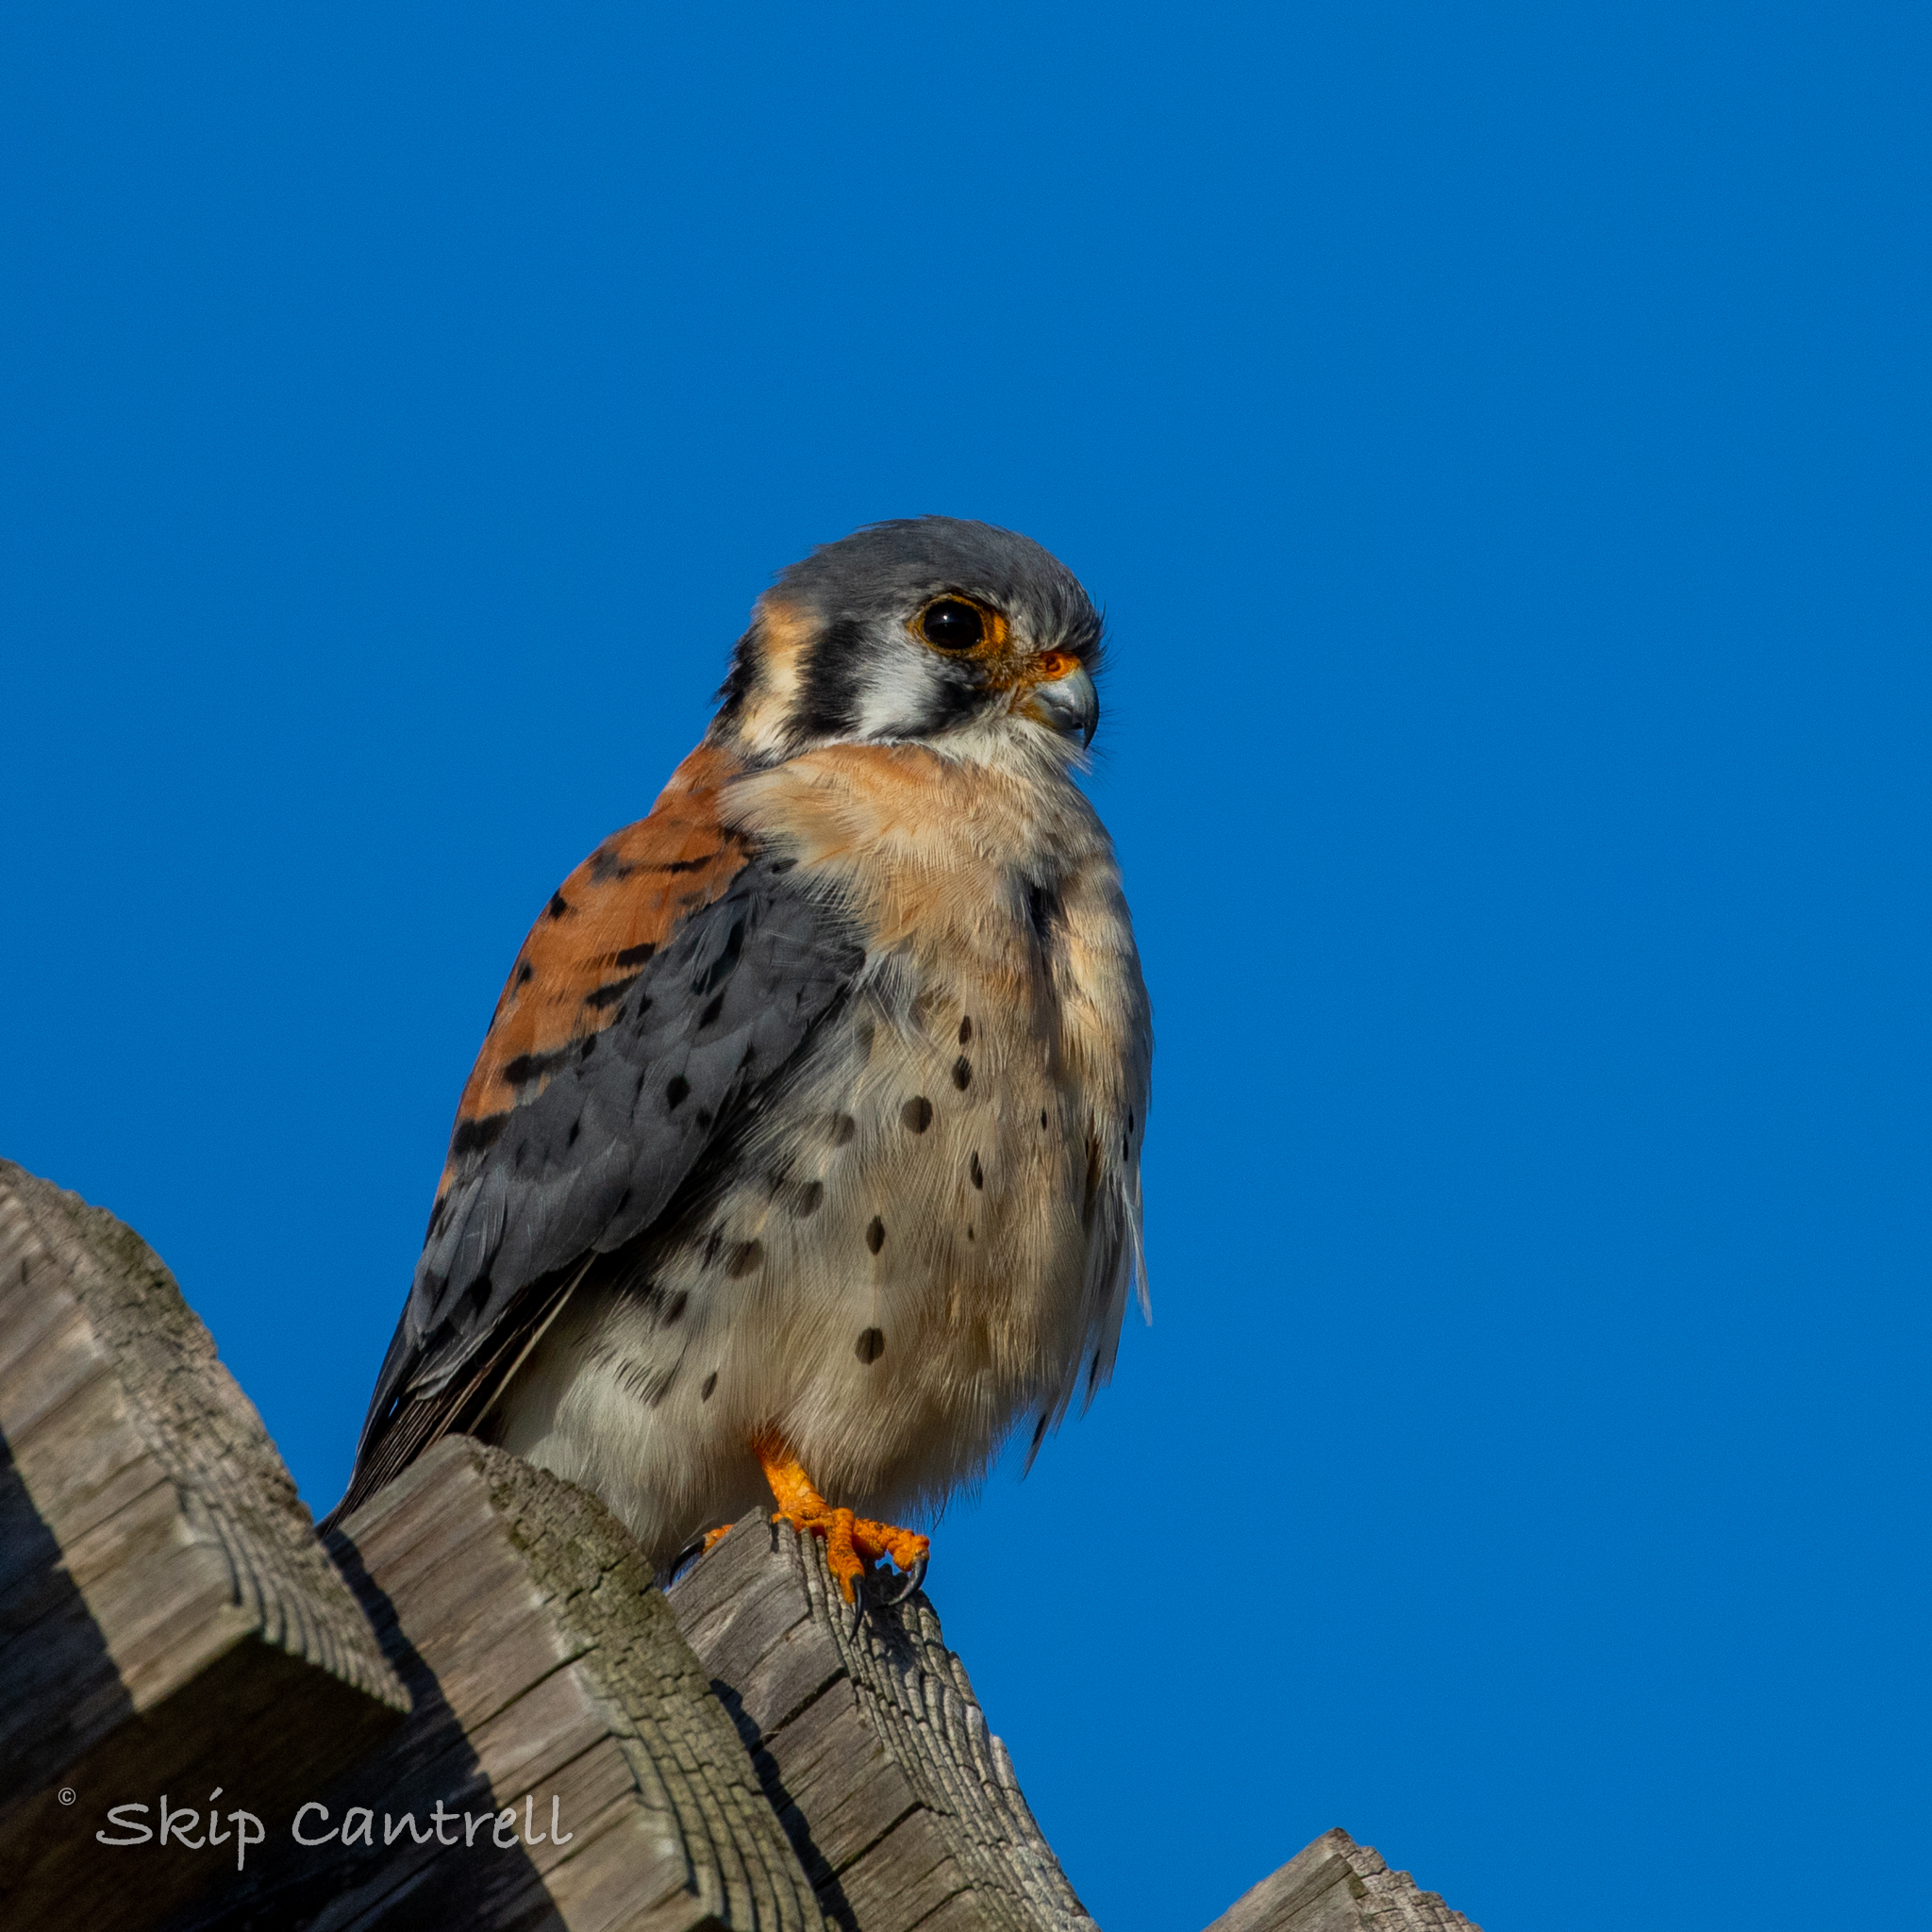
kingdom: Animalia
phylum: Chordata
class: Aves
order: Falconiformes
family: Falconidae
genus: Falco
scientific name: Falco sparverius
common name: American kestrel
